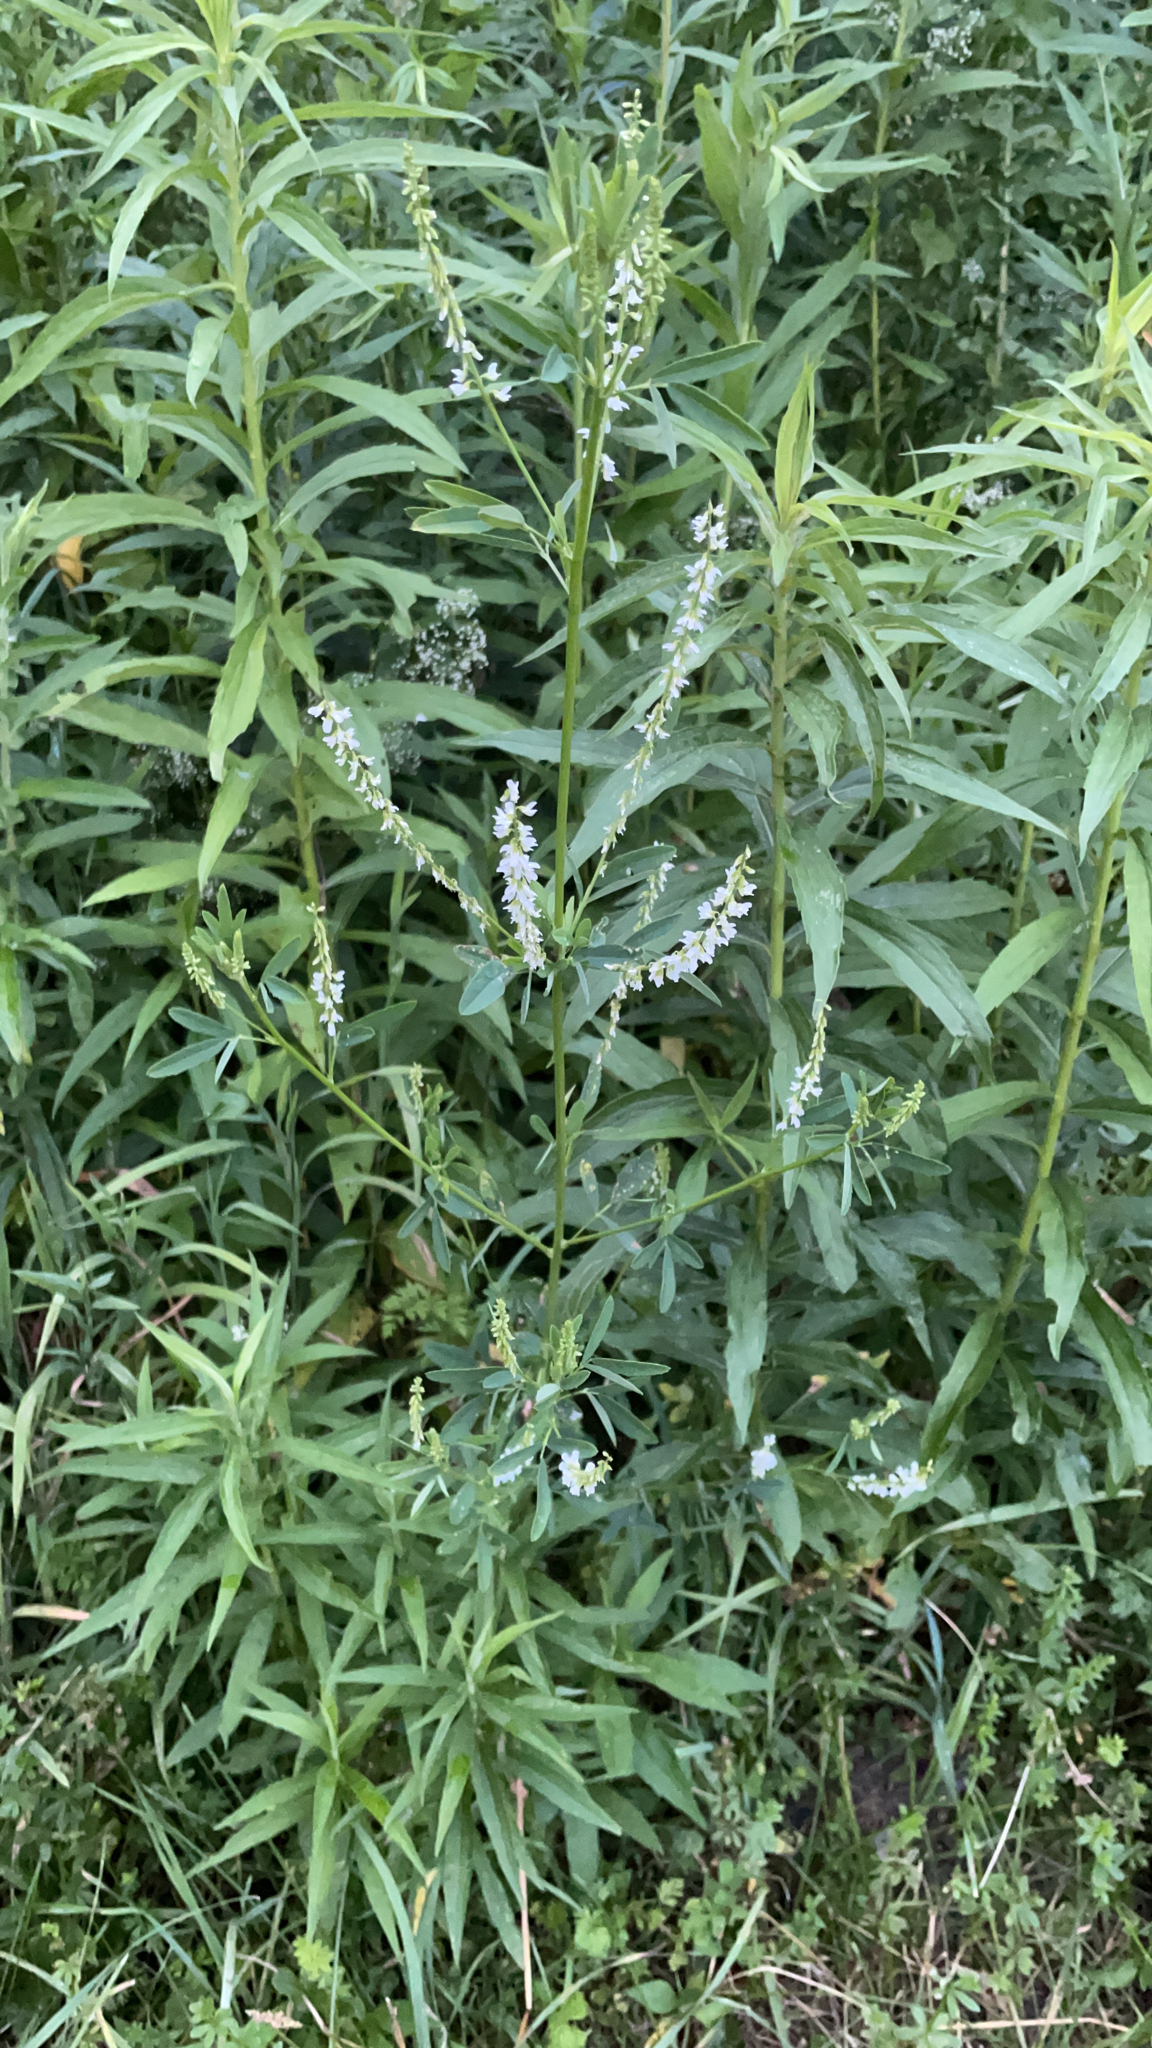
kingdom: Plantae
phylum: Tracheophyta
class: Magnoliopsida
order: Fabales
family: Fabaceae
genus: Melilotus
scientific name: Melilotus albus
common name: White melilot
